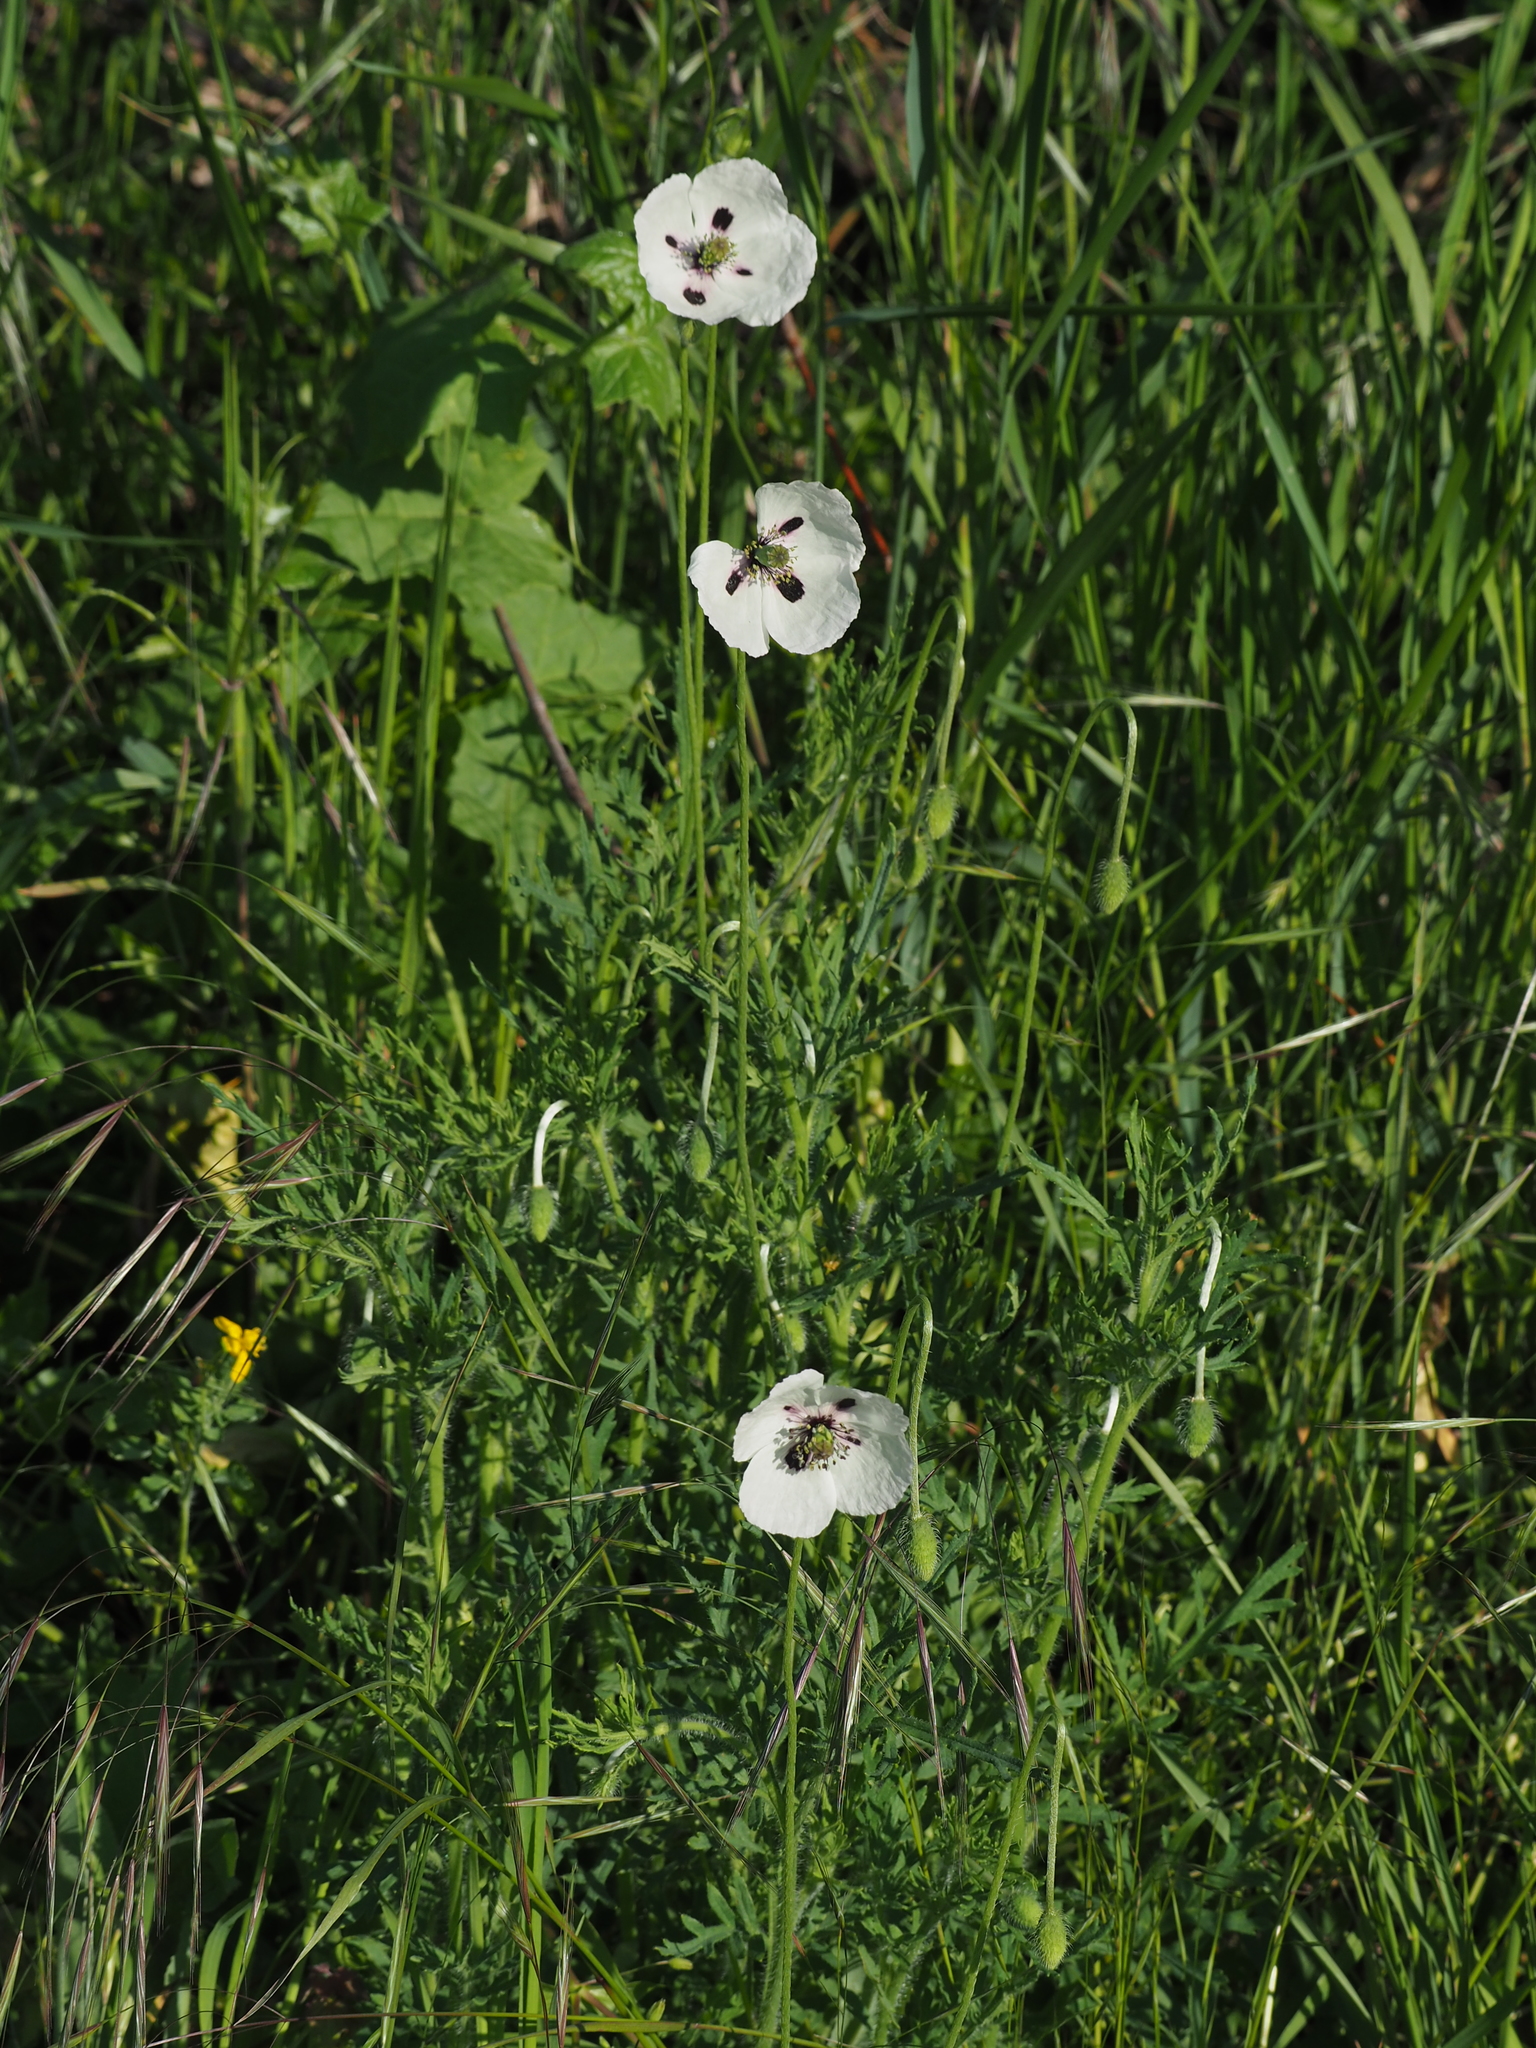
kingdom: Plantae
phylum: Tracheophyta
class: Magnoliopsida
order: Ranunculales
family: Papaveraceae
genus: Papaver
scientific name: Papaver dubium
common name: Long-headed poppy
